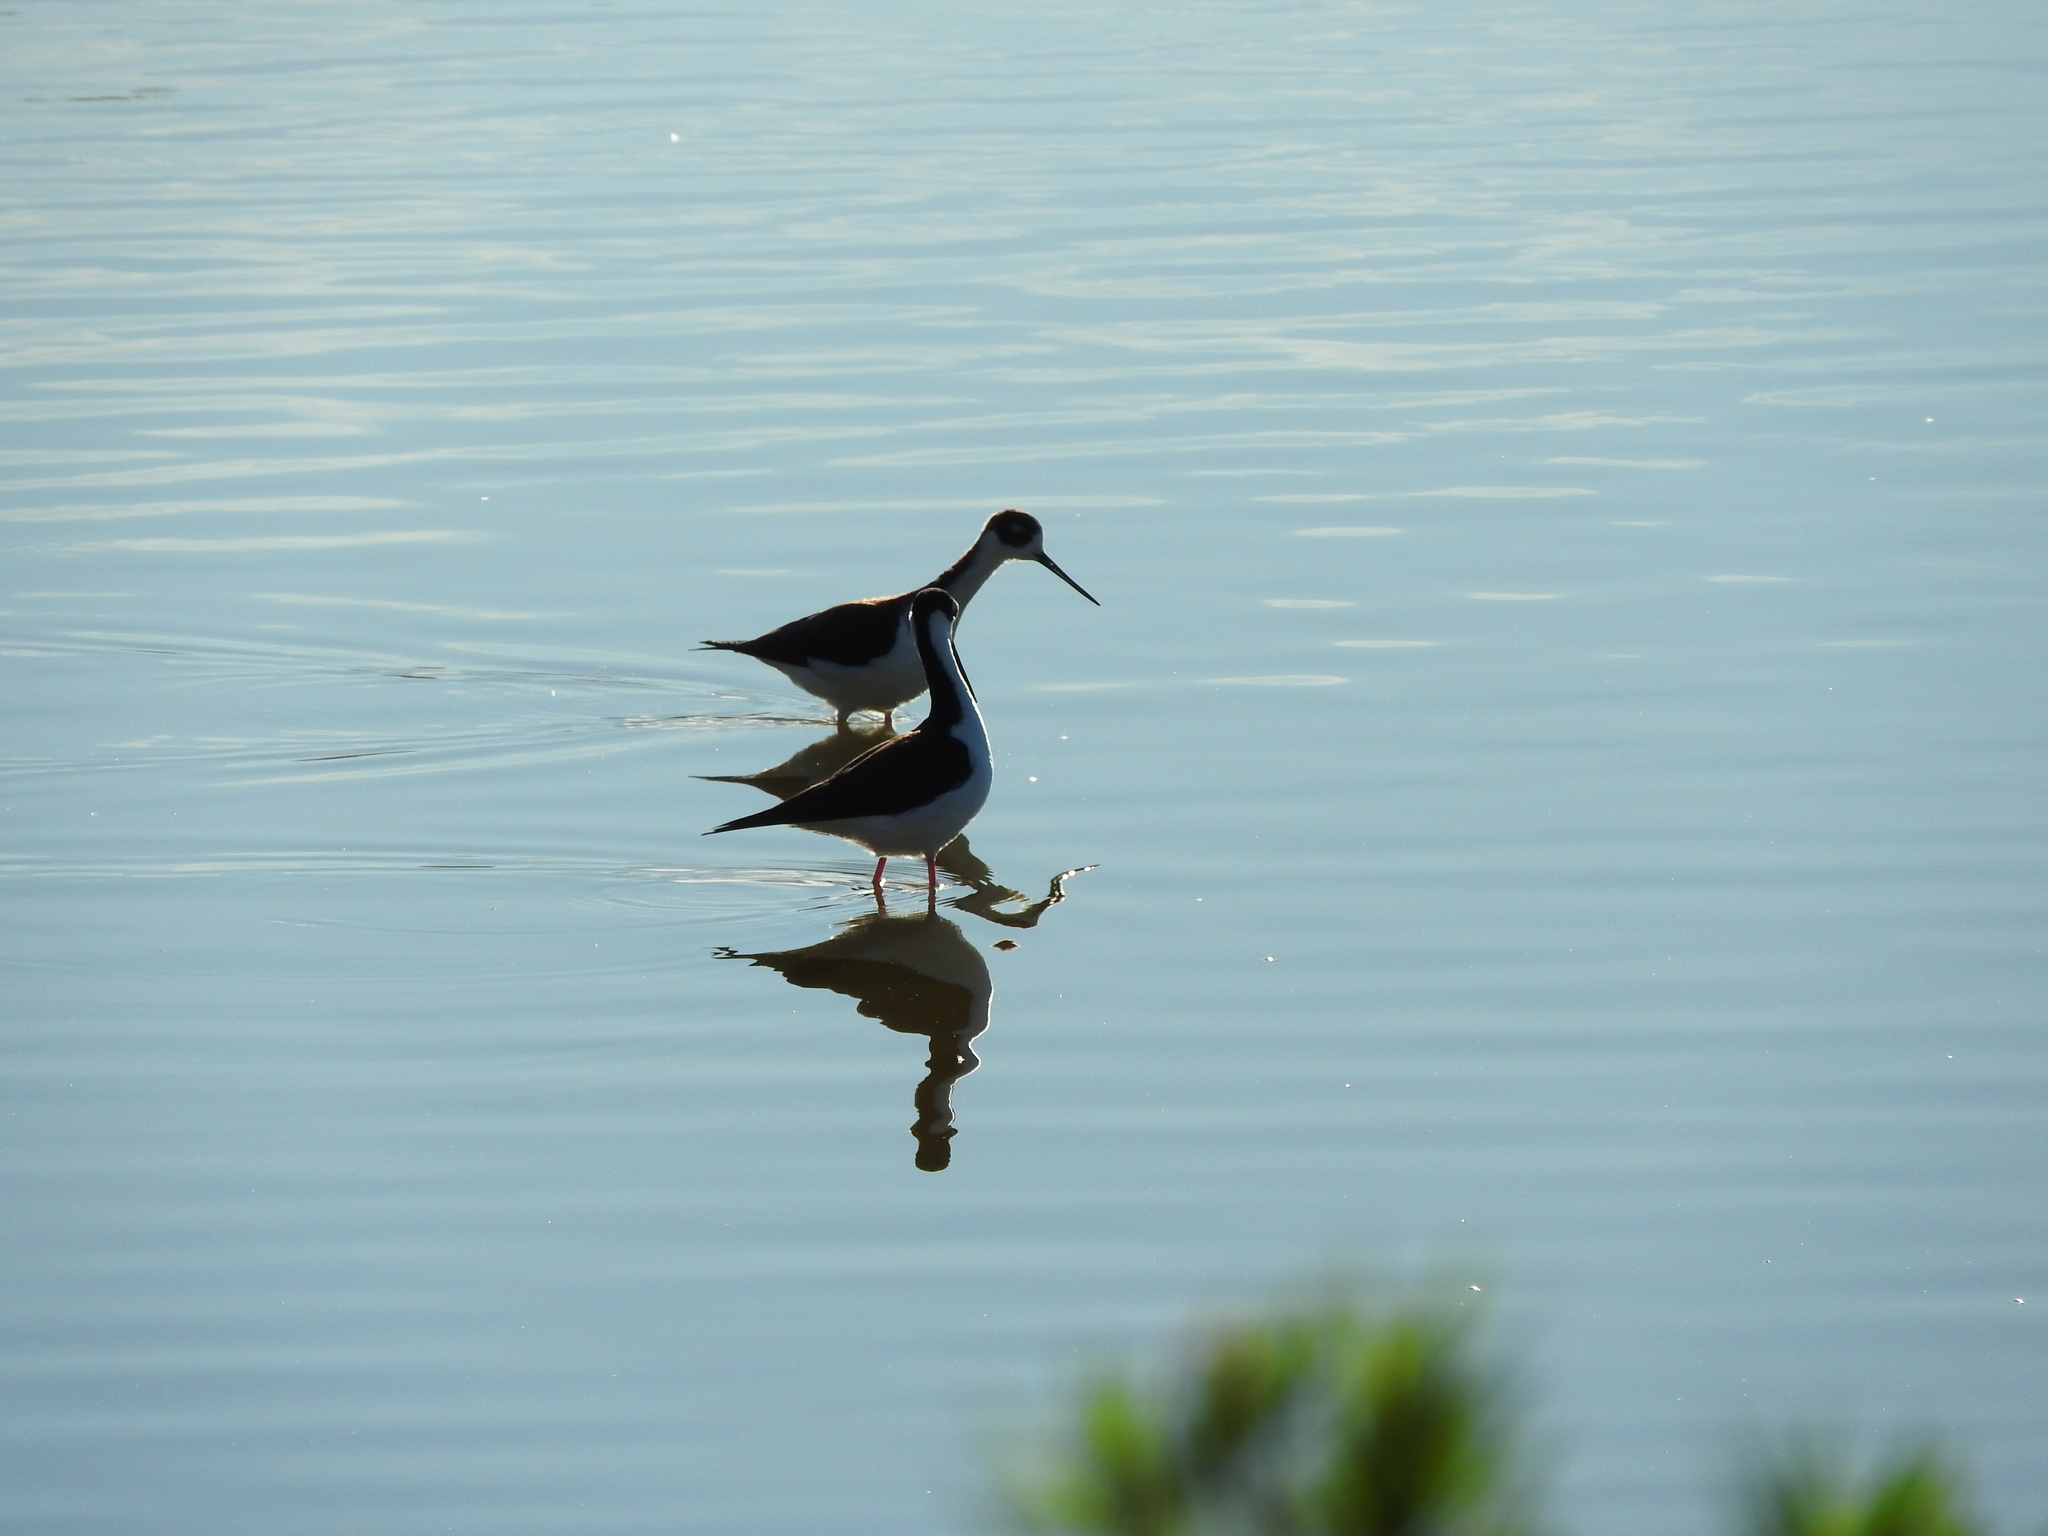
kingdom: Animalia
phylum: Chordata
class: Aves
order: Charadriiformes
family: Recurvirostridae
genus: Himantopus
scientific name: Himantopus mexicanus
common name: Black-necked stilt
